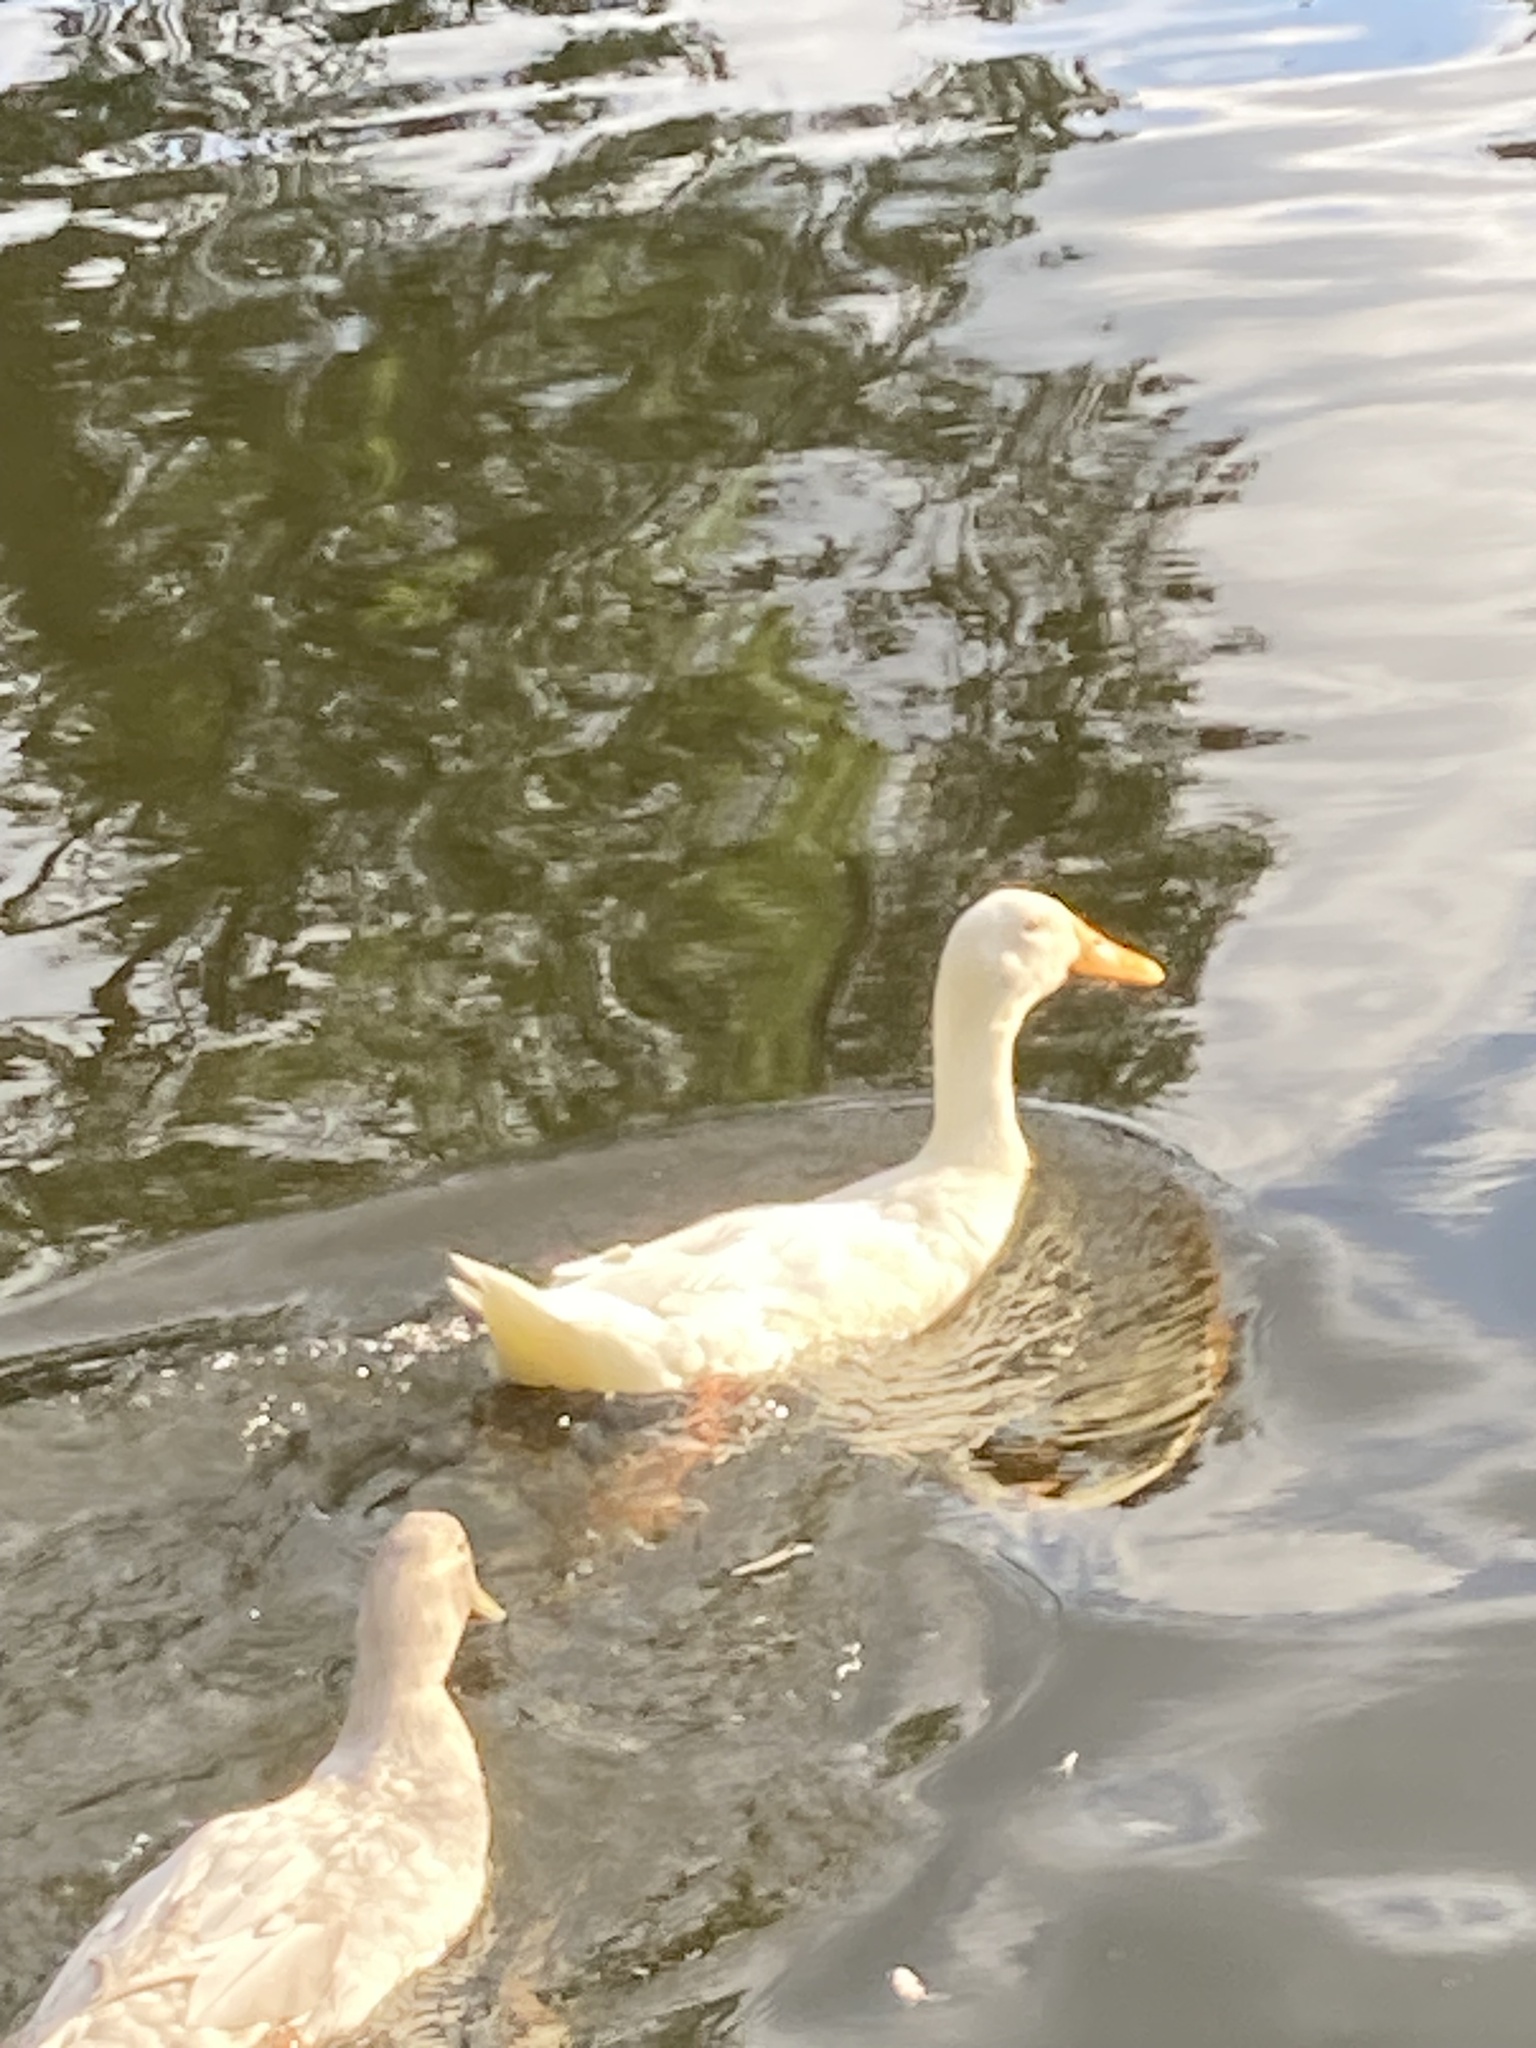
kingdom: Animalia
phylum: Chordata
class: Aves
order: Anseriformes
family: Anatidae
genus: Anas
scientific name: Anas platyrhynchos
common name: Mallard
